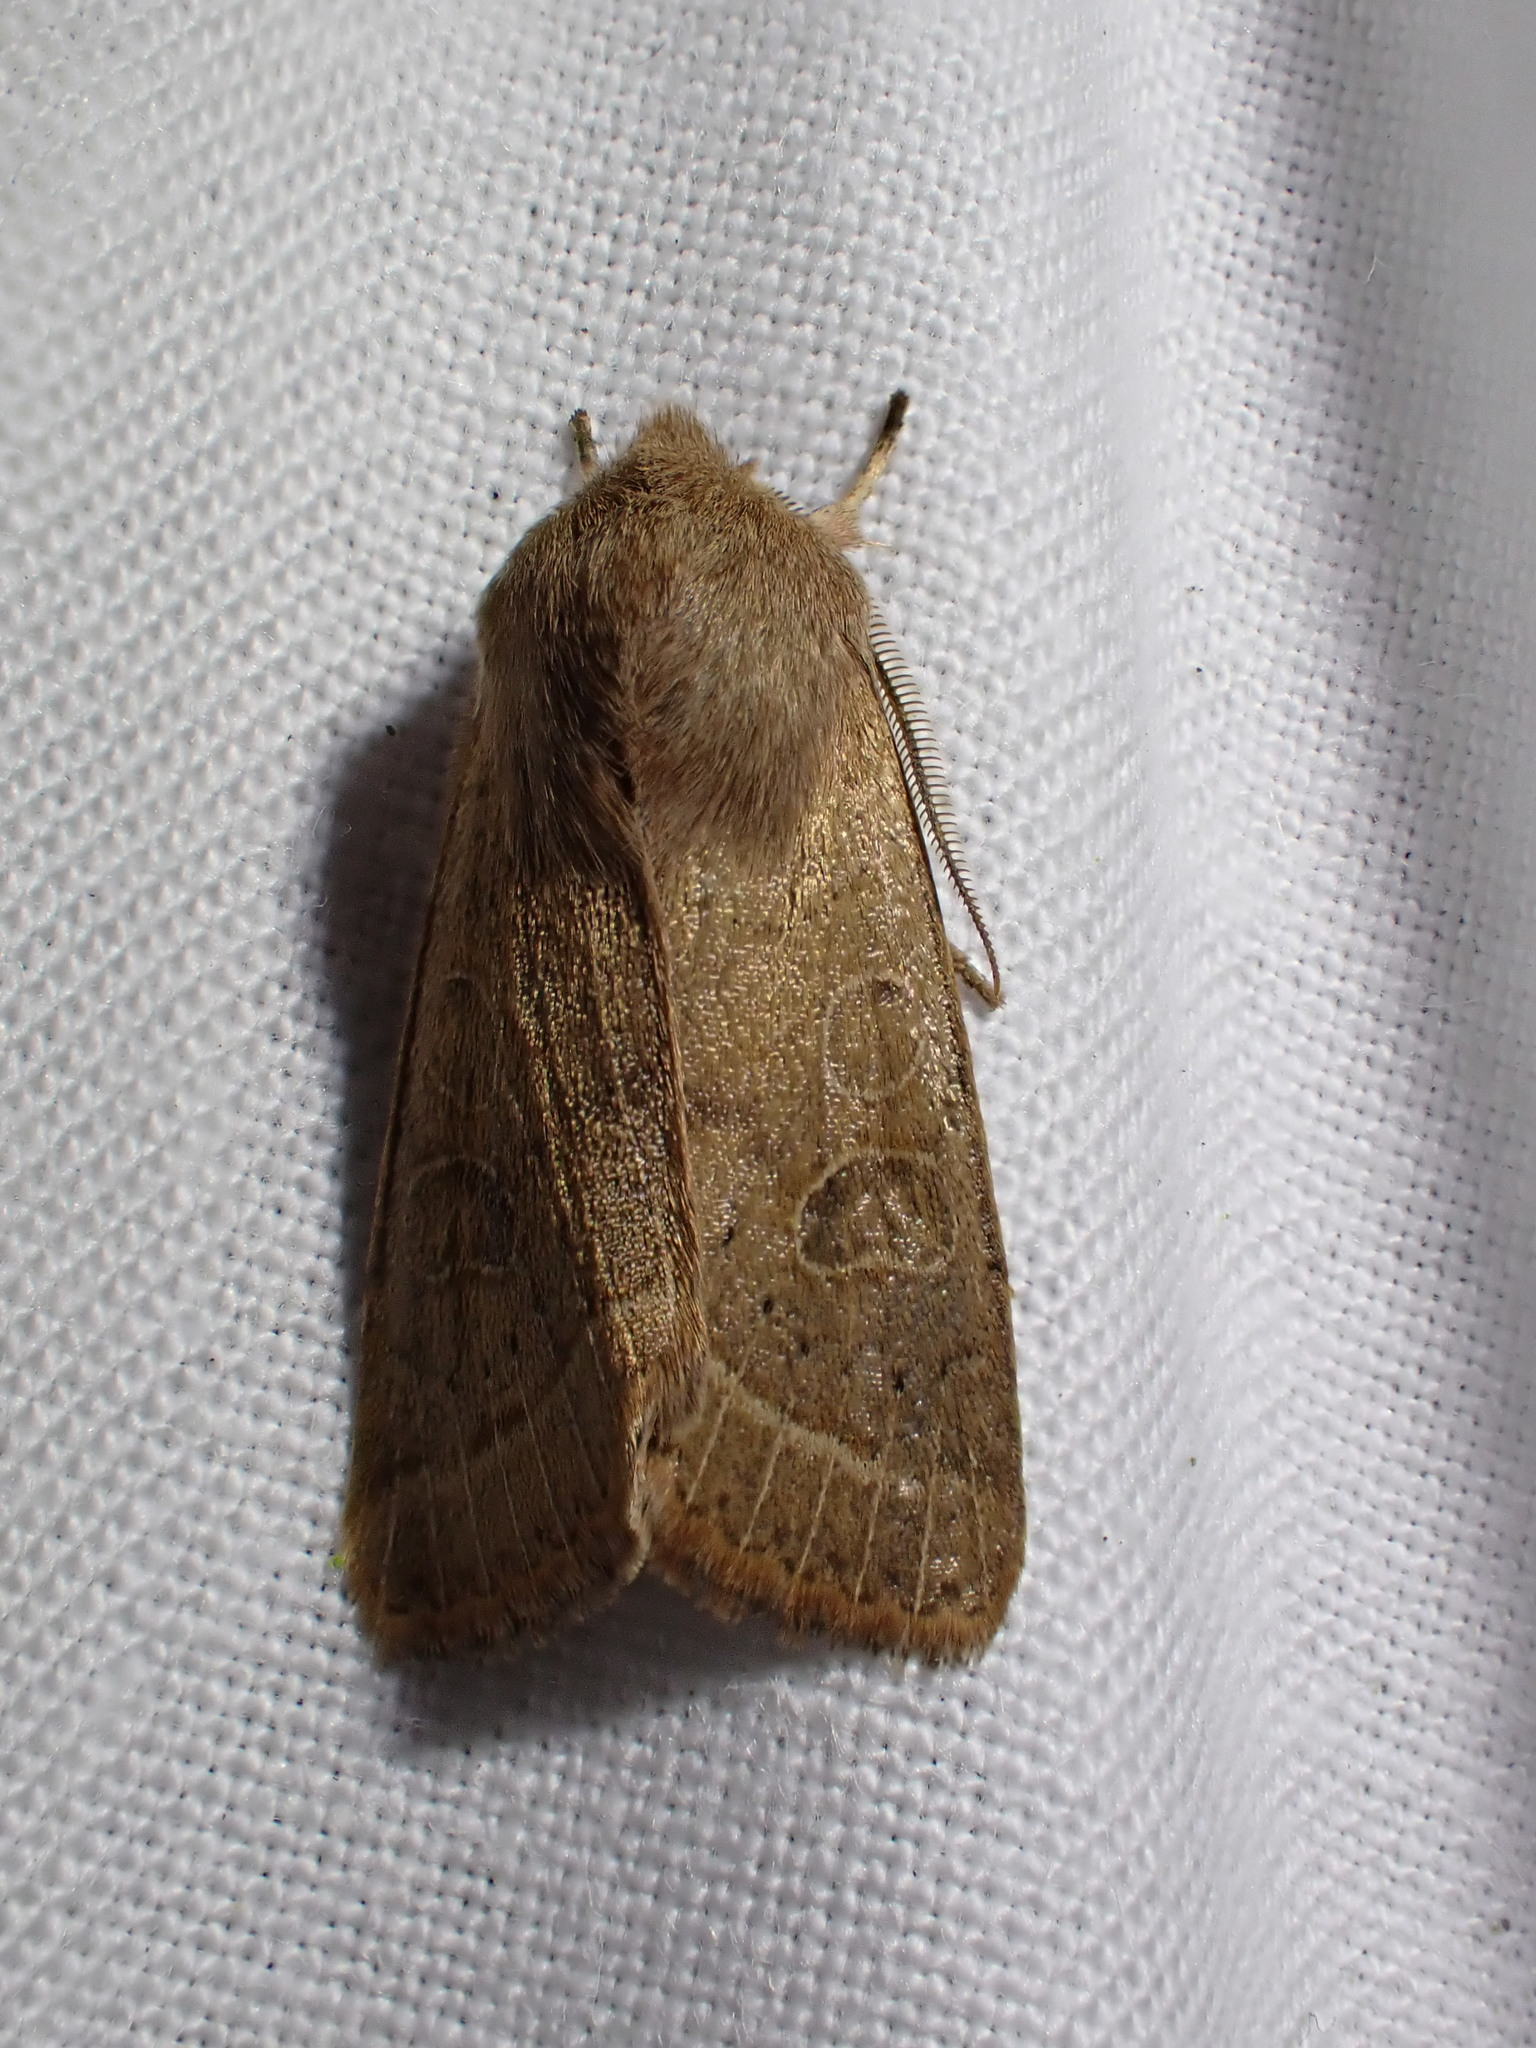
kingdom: Animalia
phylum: Arthropoda
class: Insecta
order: Lepidoptera
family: Noctuidae
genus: Orthosia
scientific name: Orthosia cerasi
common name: Common quaker
